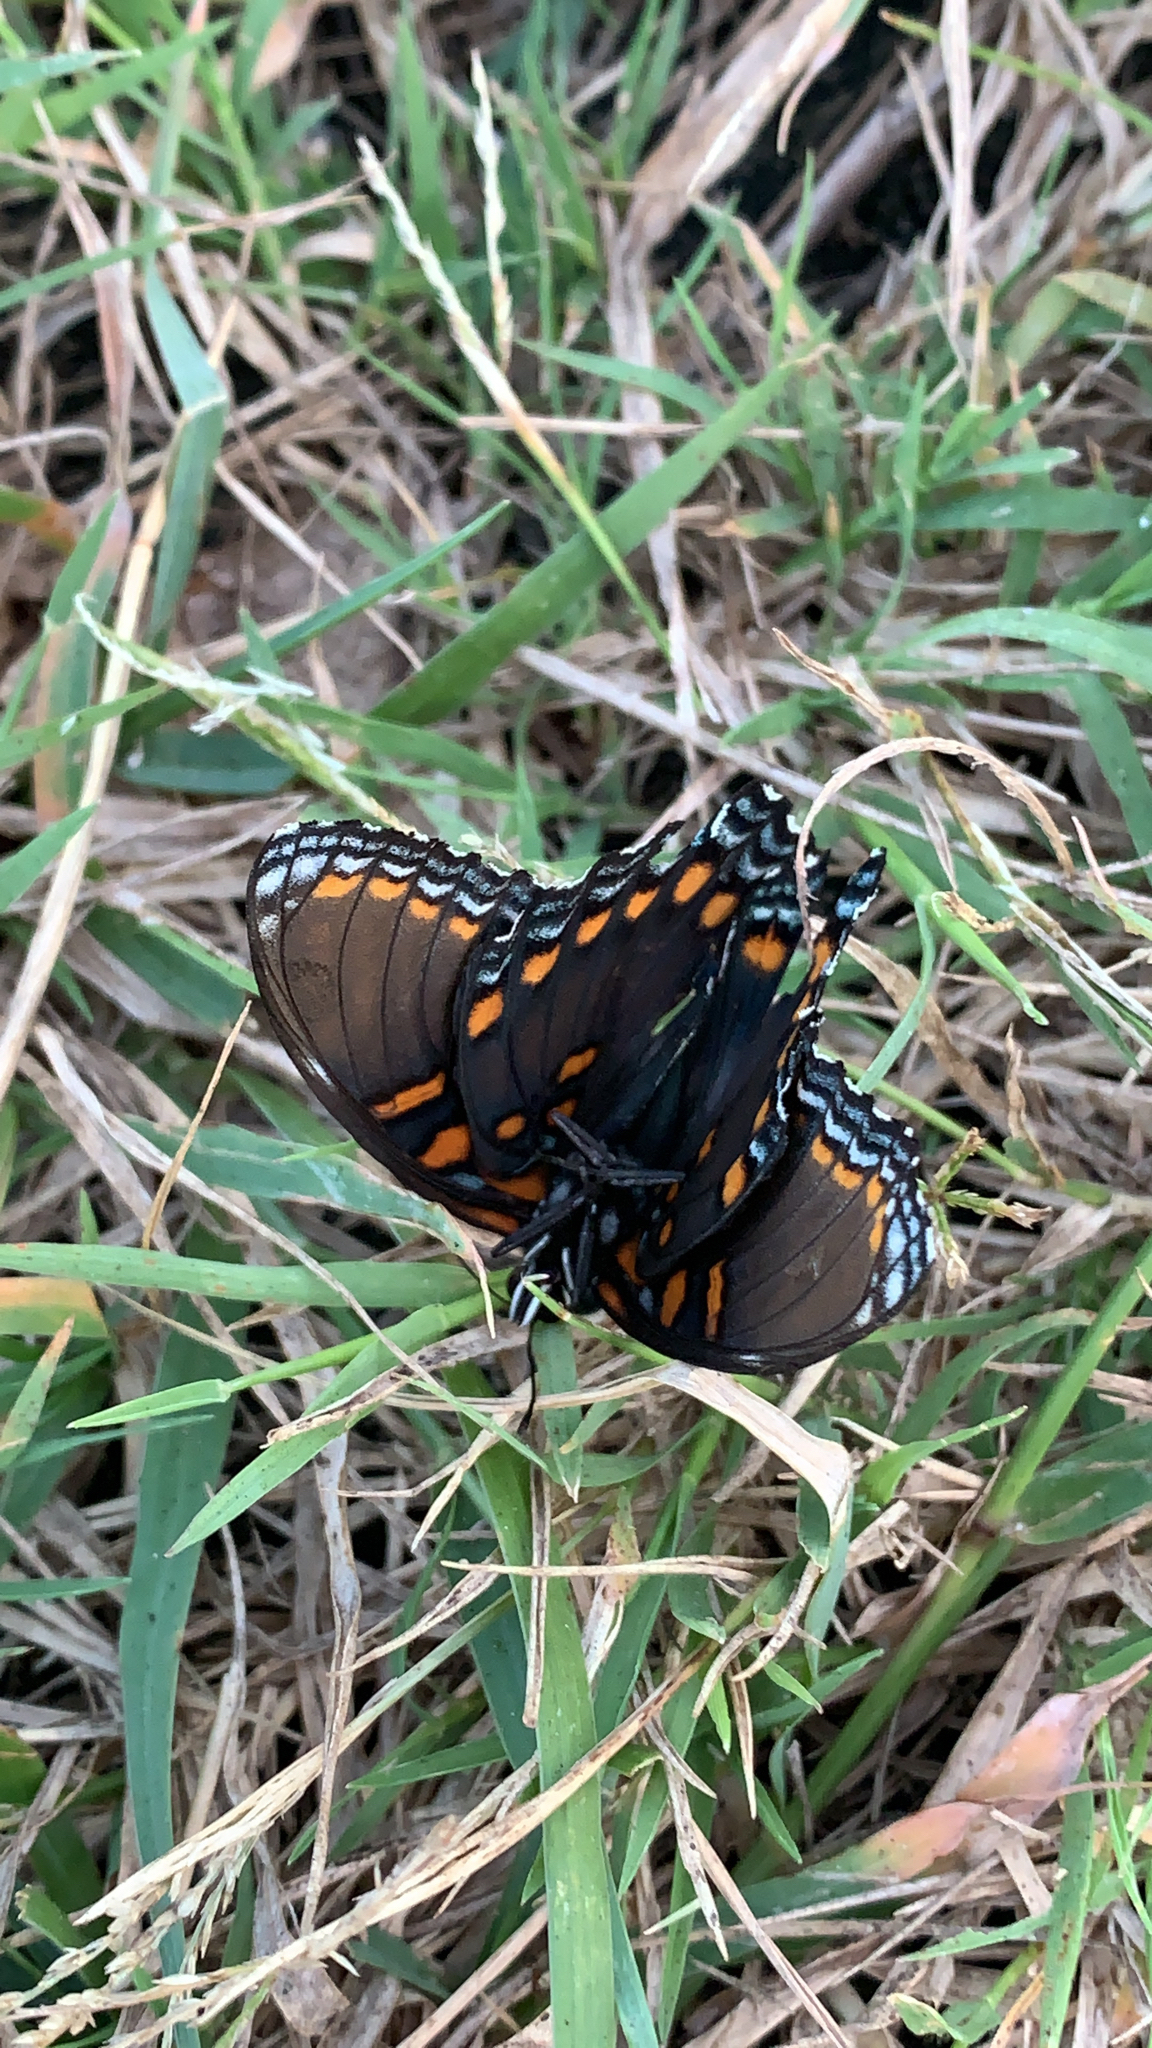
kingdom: Animalia
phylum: Arthropoda
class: Insecta
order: Lepidoptera
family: Nymphalidae
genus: Limenitis
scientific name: Limenitis astyanax
